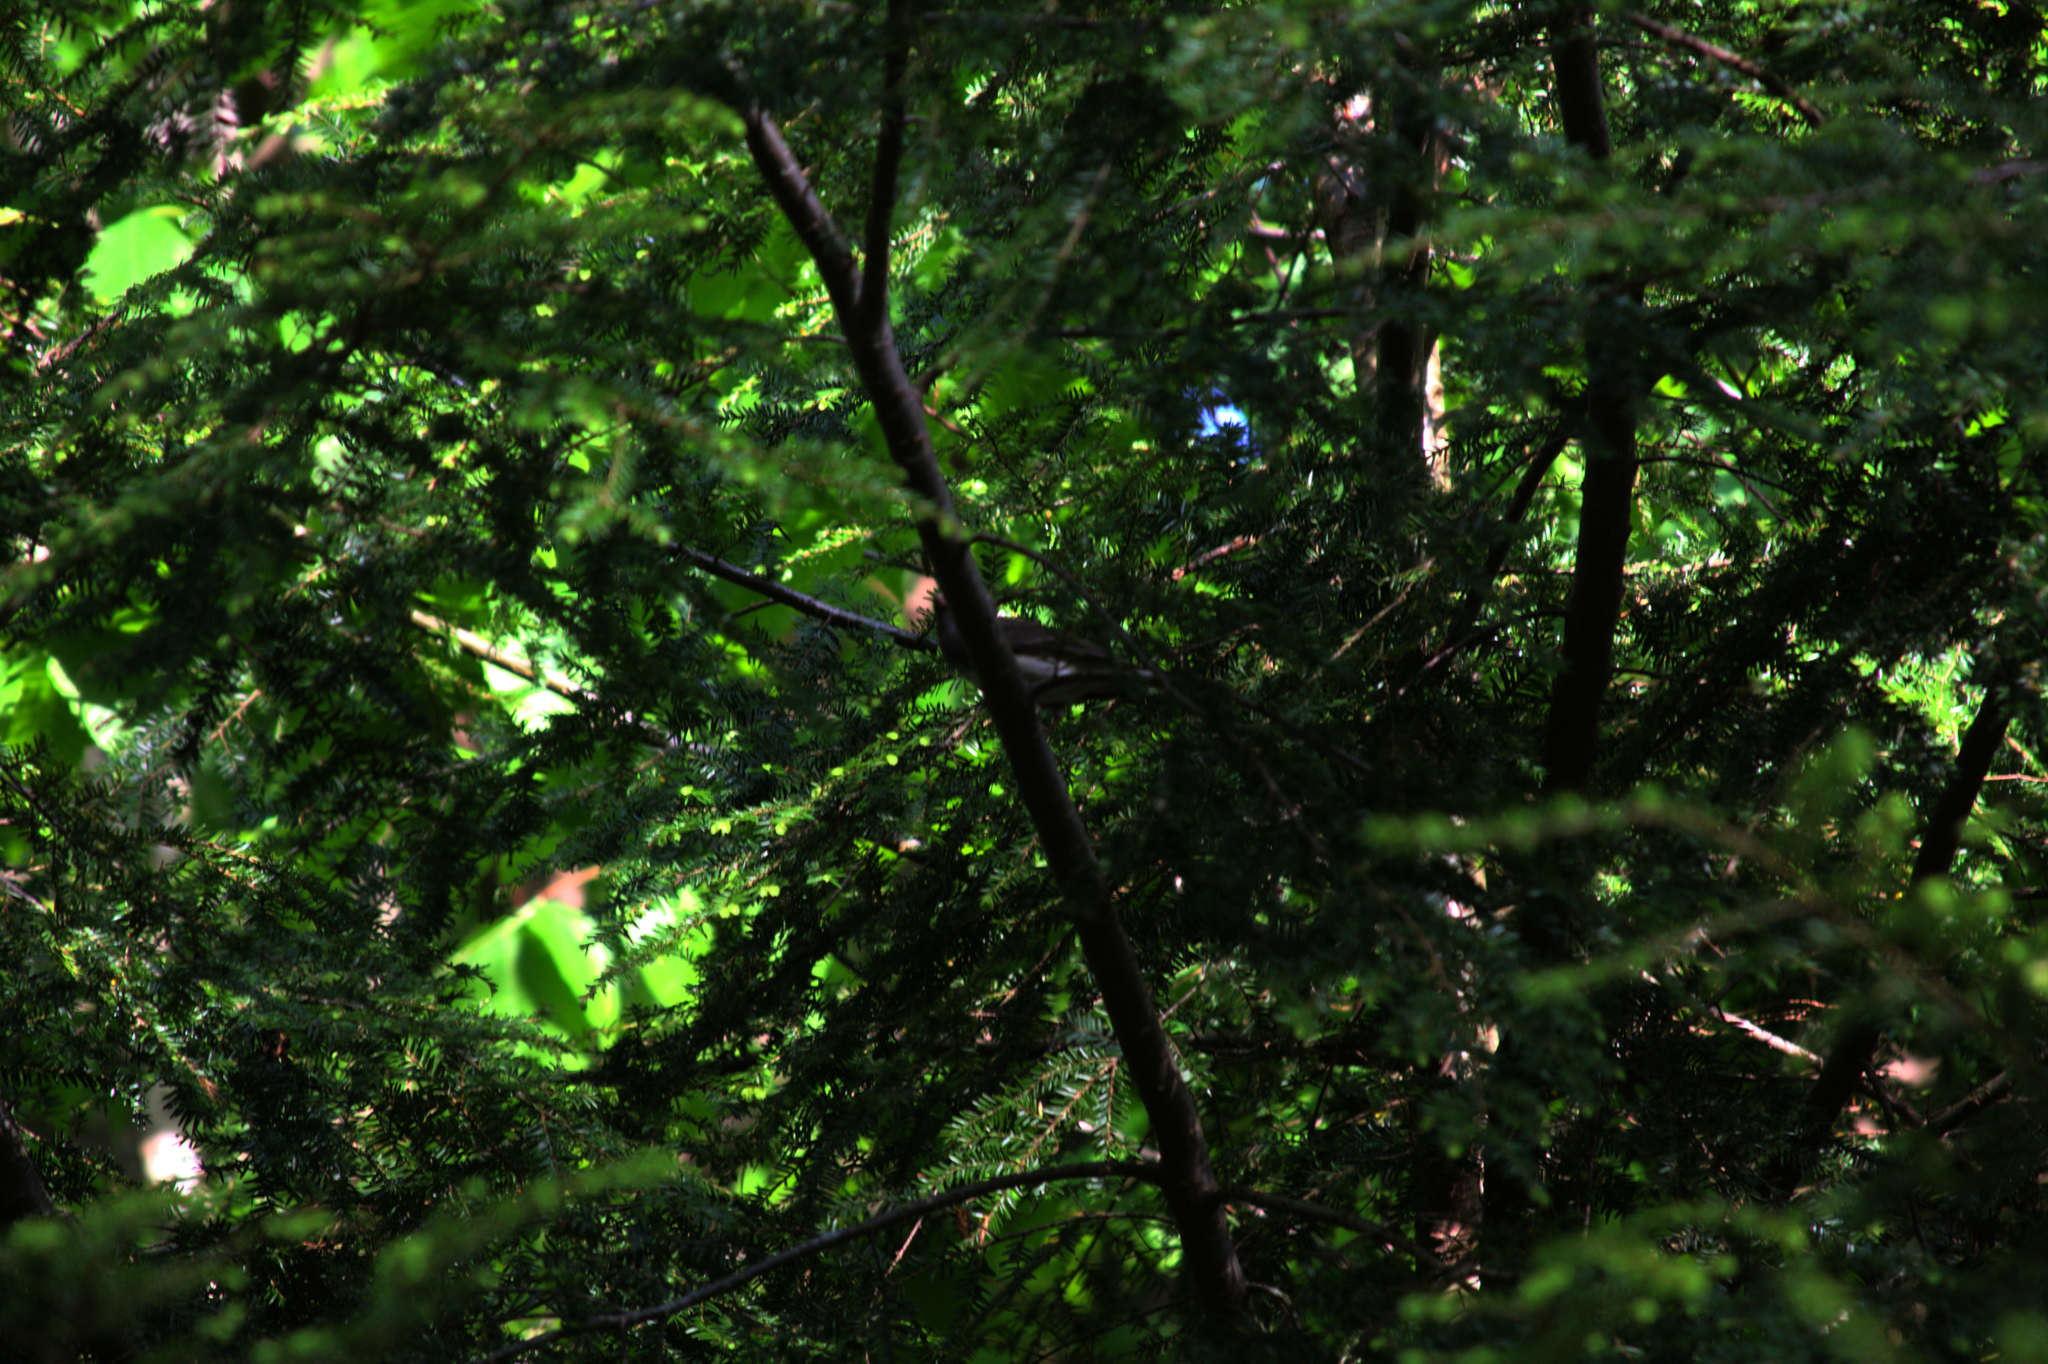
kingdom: Animalia
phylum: Chordata
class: Aves
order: Passeriformes
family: Passerellidae
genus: Junco
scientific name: Junco hyemalis
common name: Dark-eyed junco
